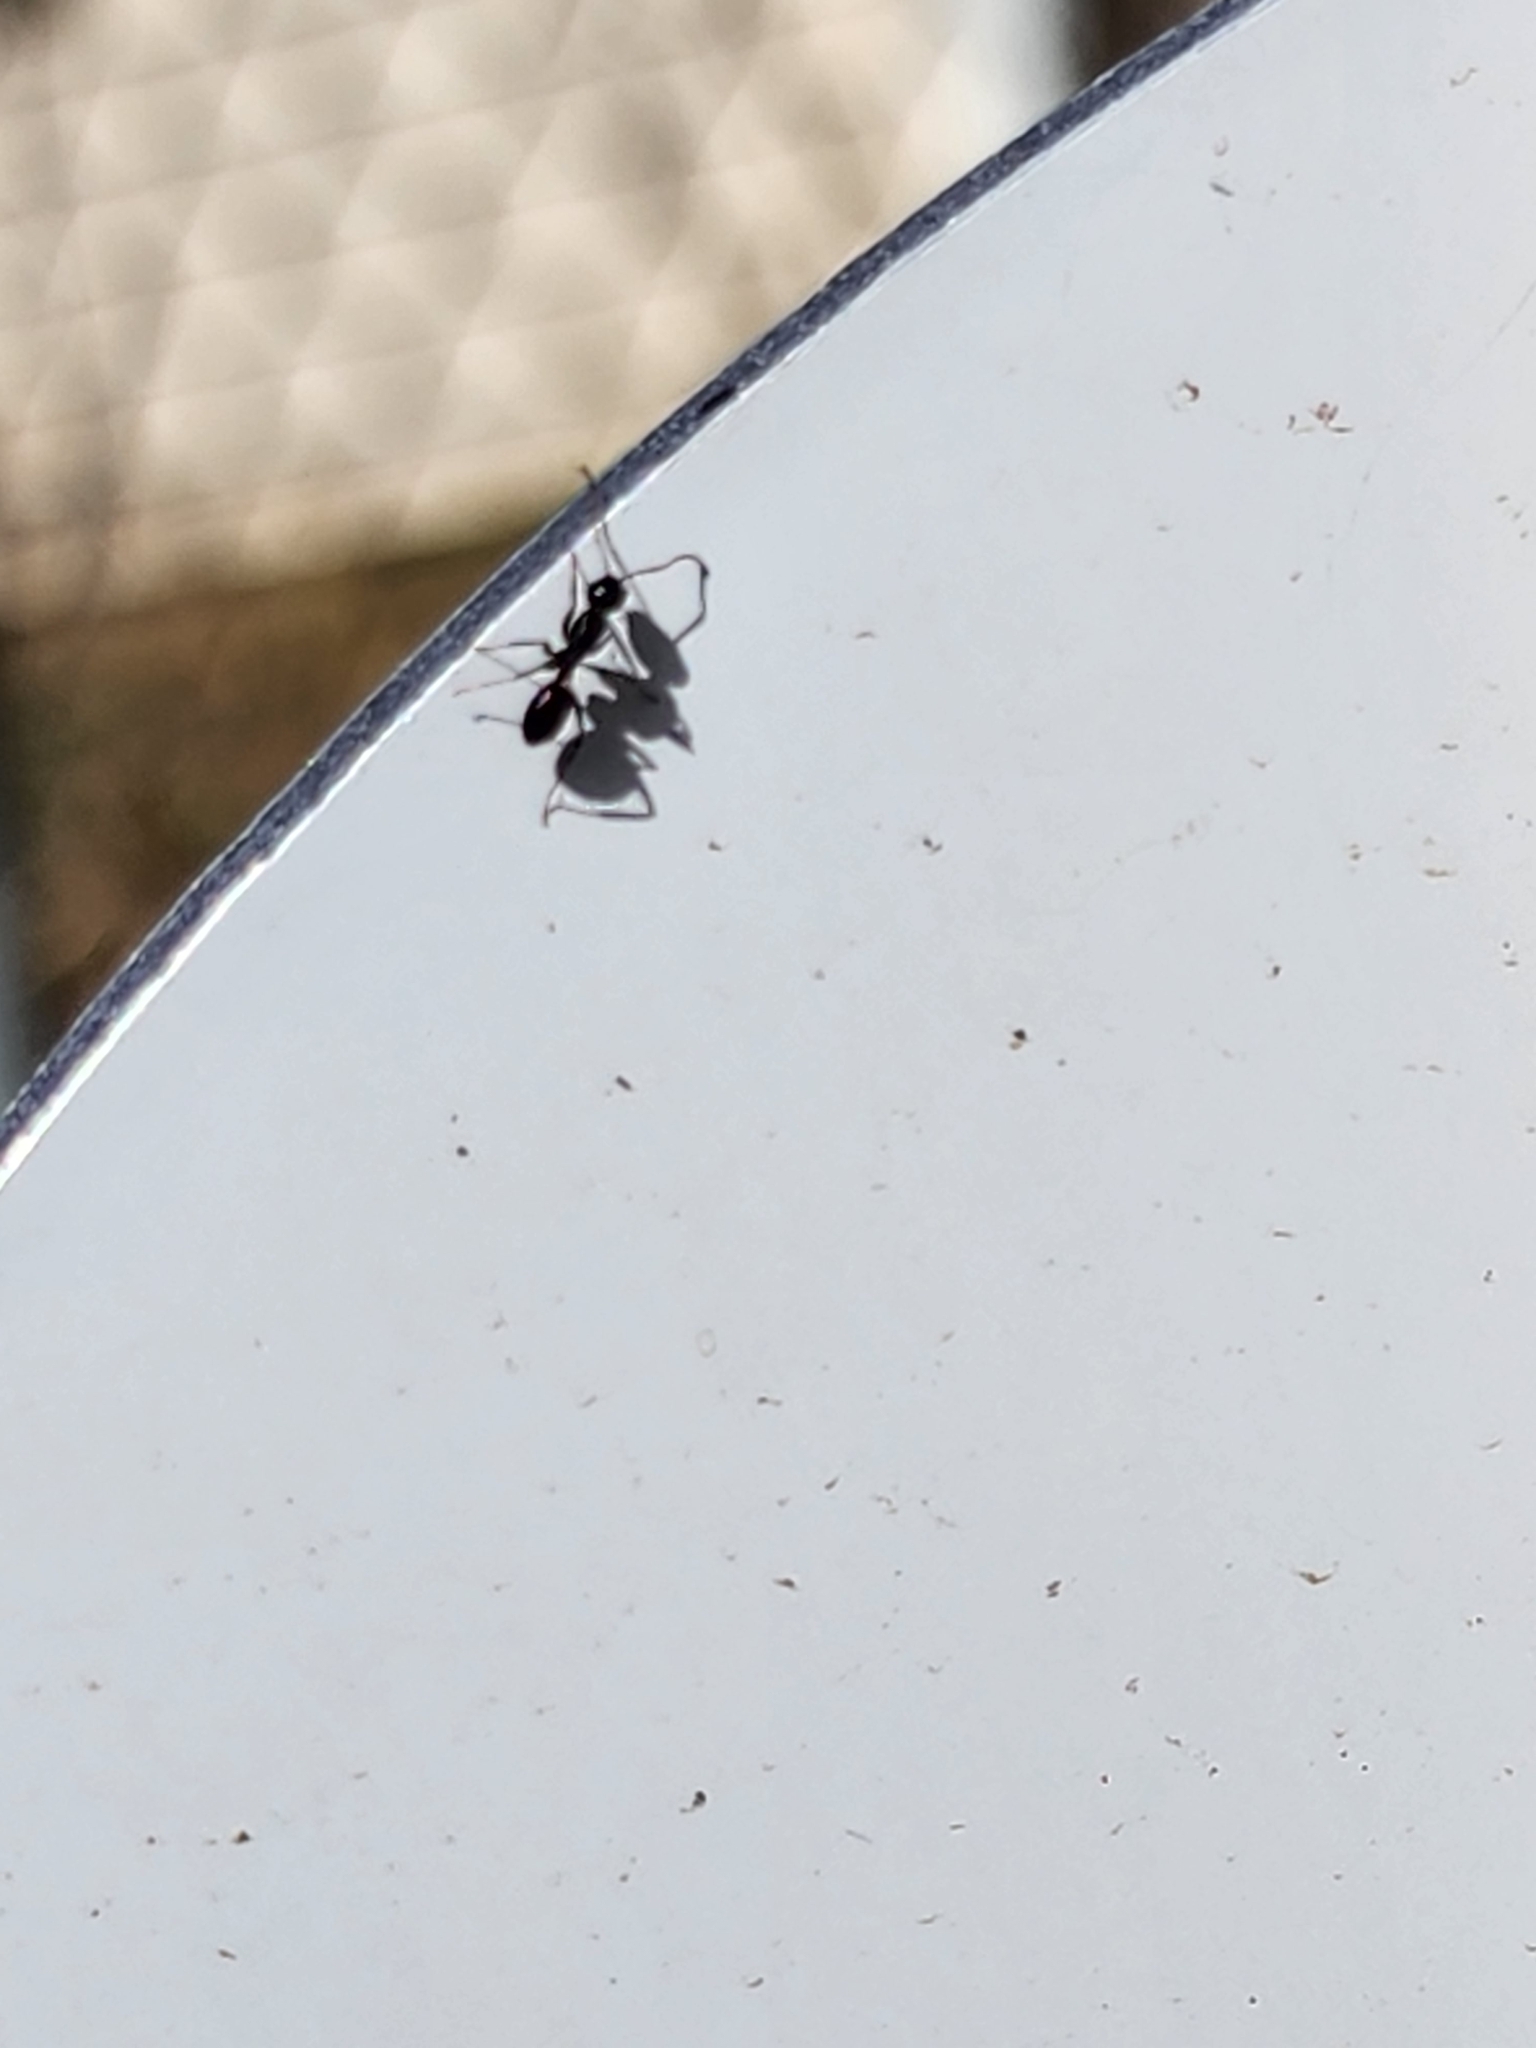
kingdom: Animalia
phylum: Arthropoda
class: Insecta
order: Hymenoptera
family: Formicidae
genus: Myrmentoma
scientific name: Myrmentoma
